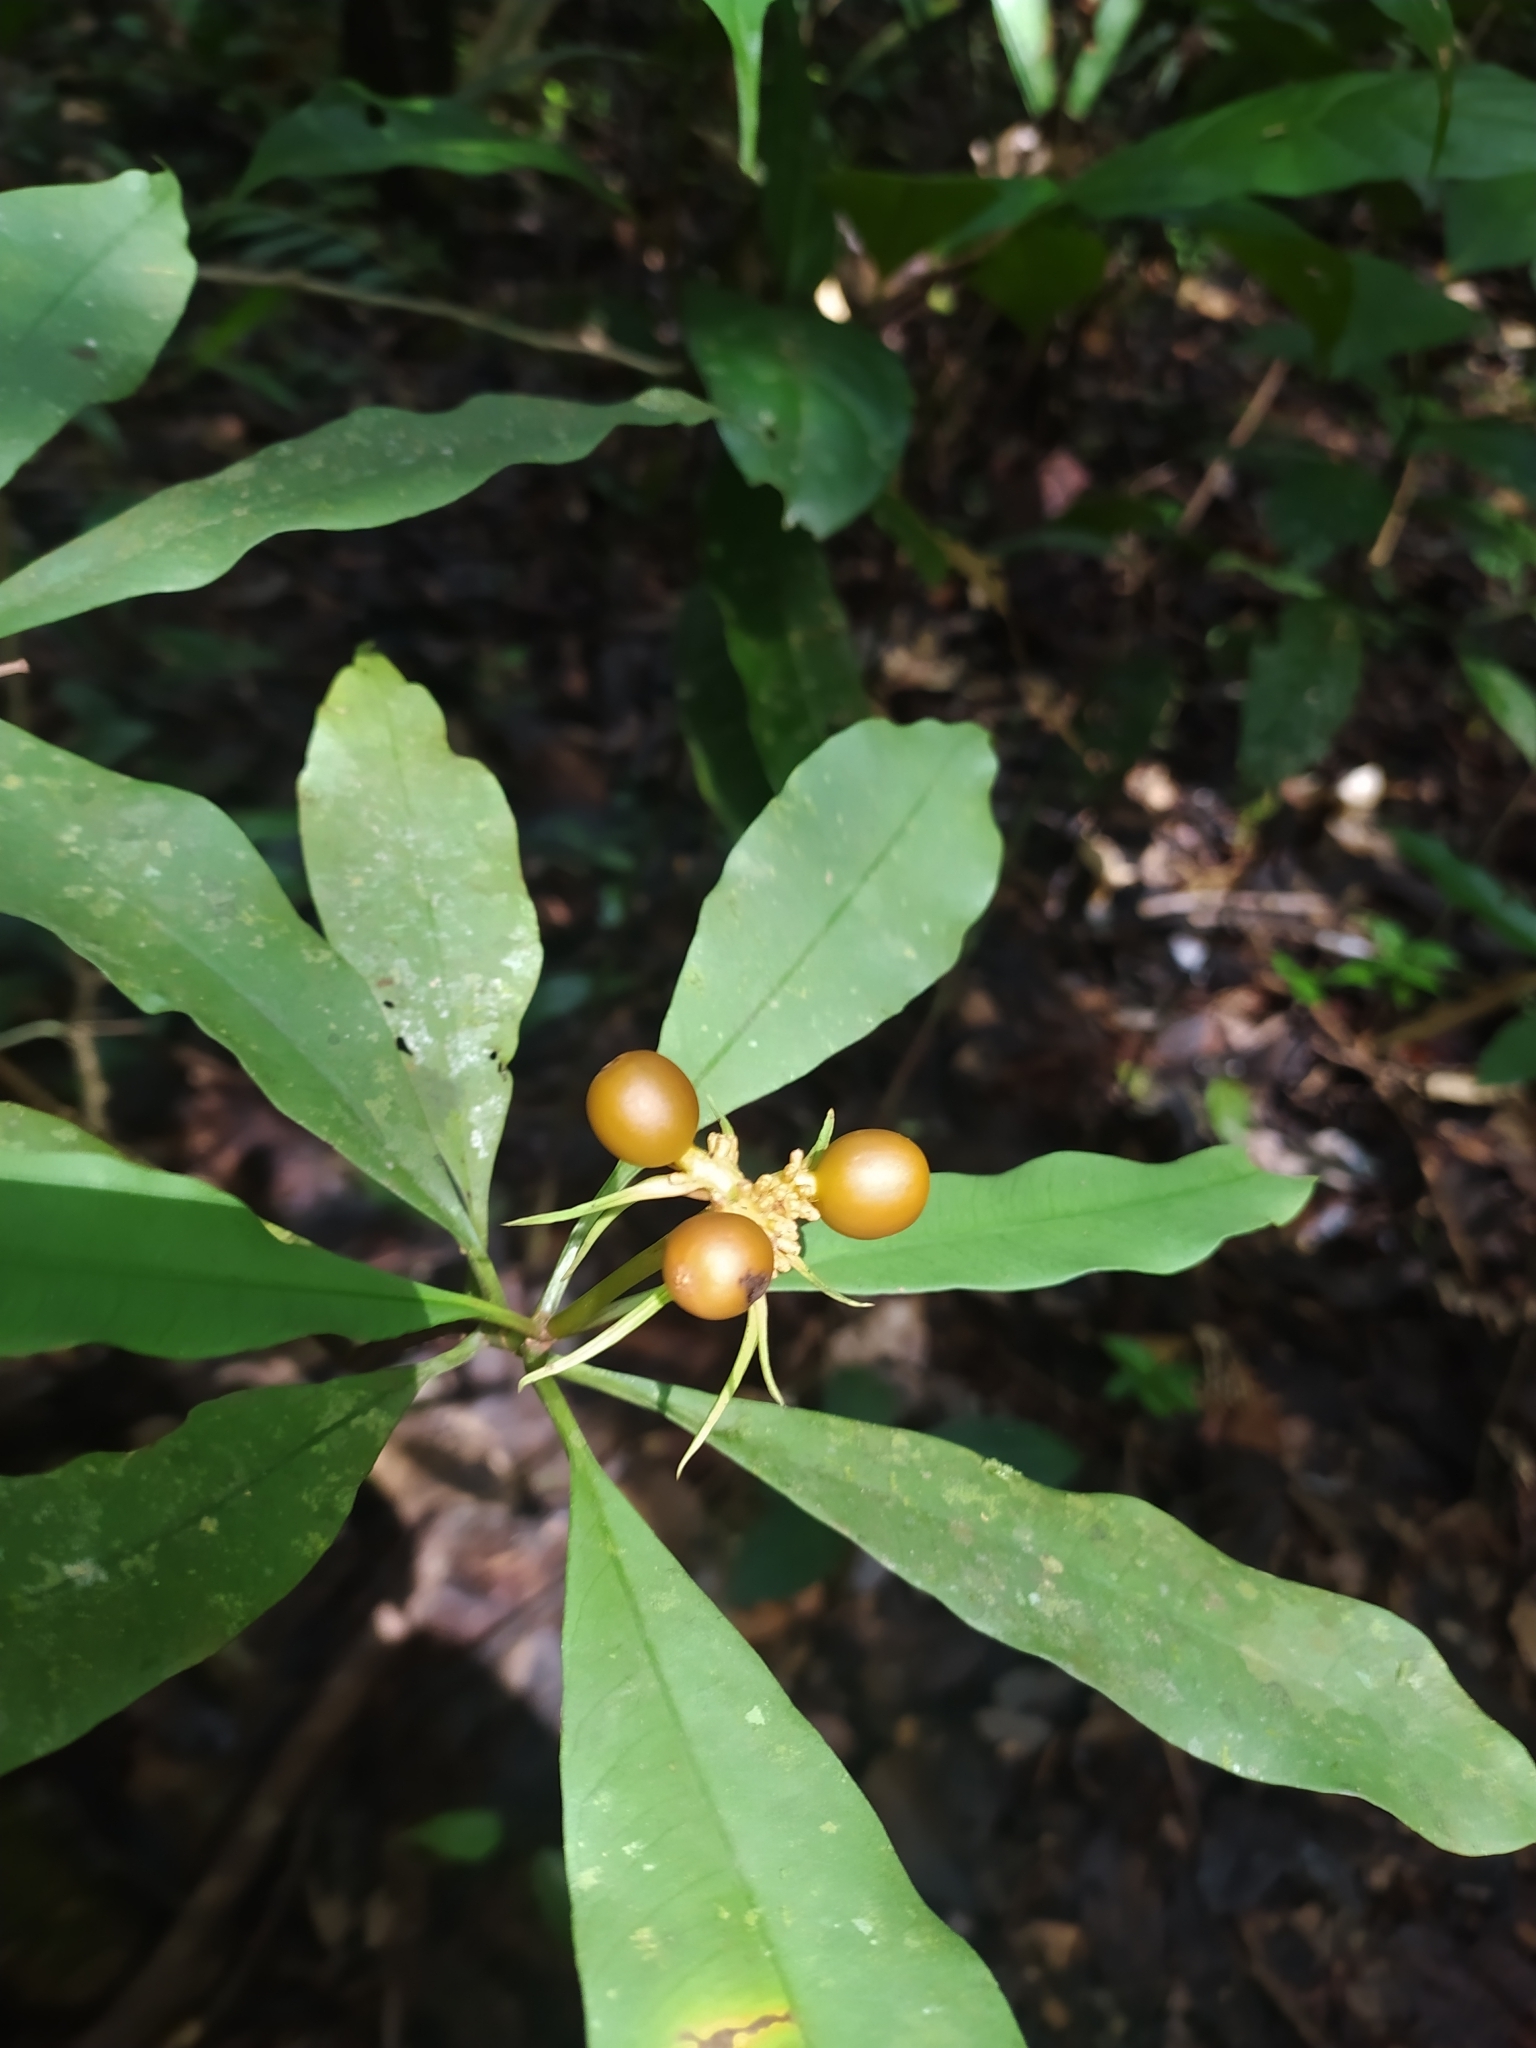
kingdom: Plantae
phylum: Tracheophyta
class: Magnoliopsida
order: Gentianales
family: Rubiaceae
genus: Carapichea
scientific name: Carapichea ligularis
